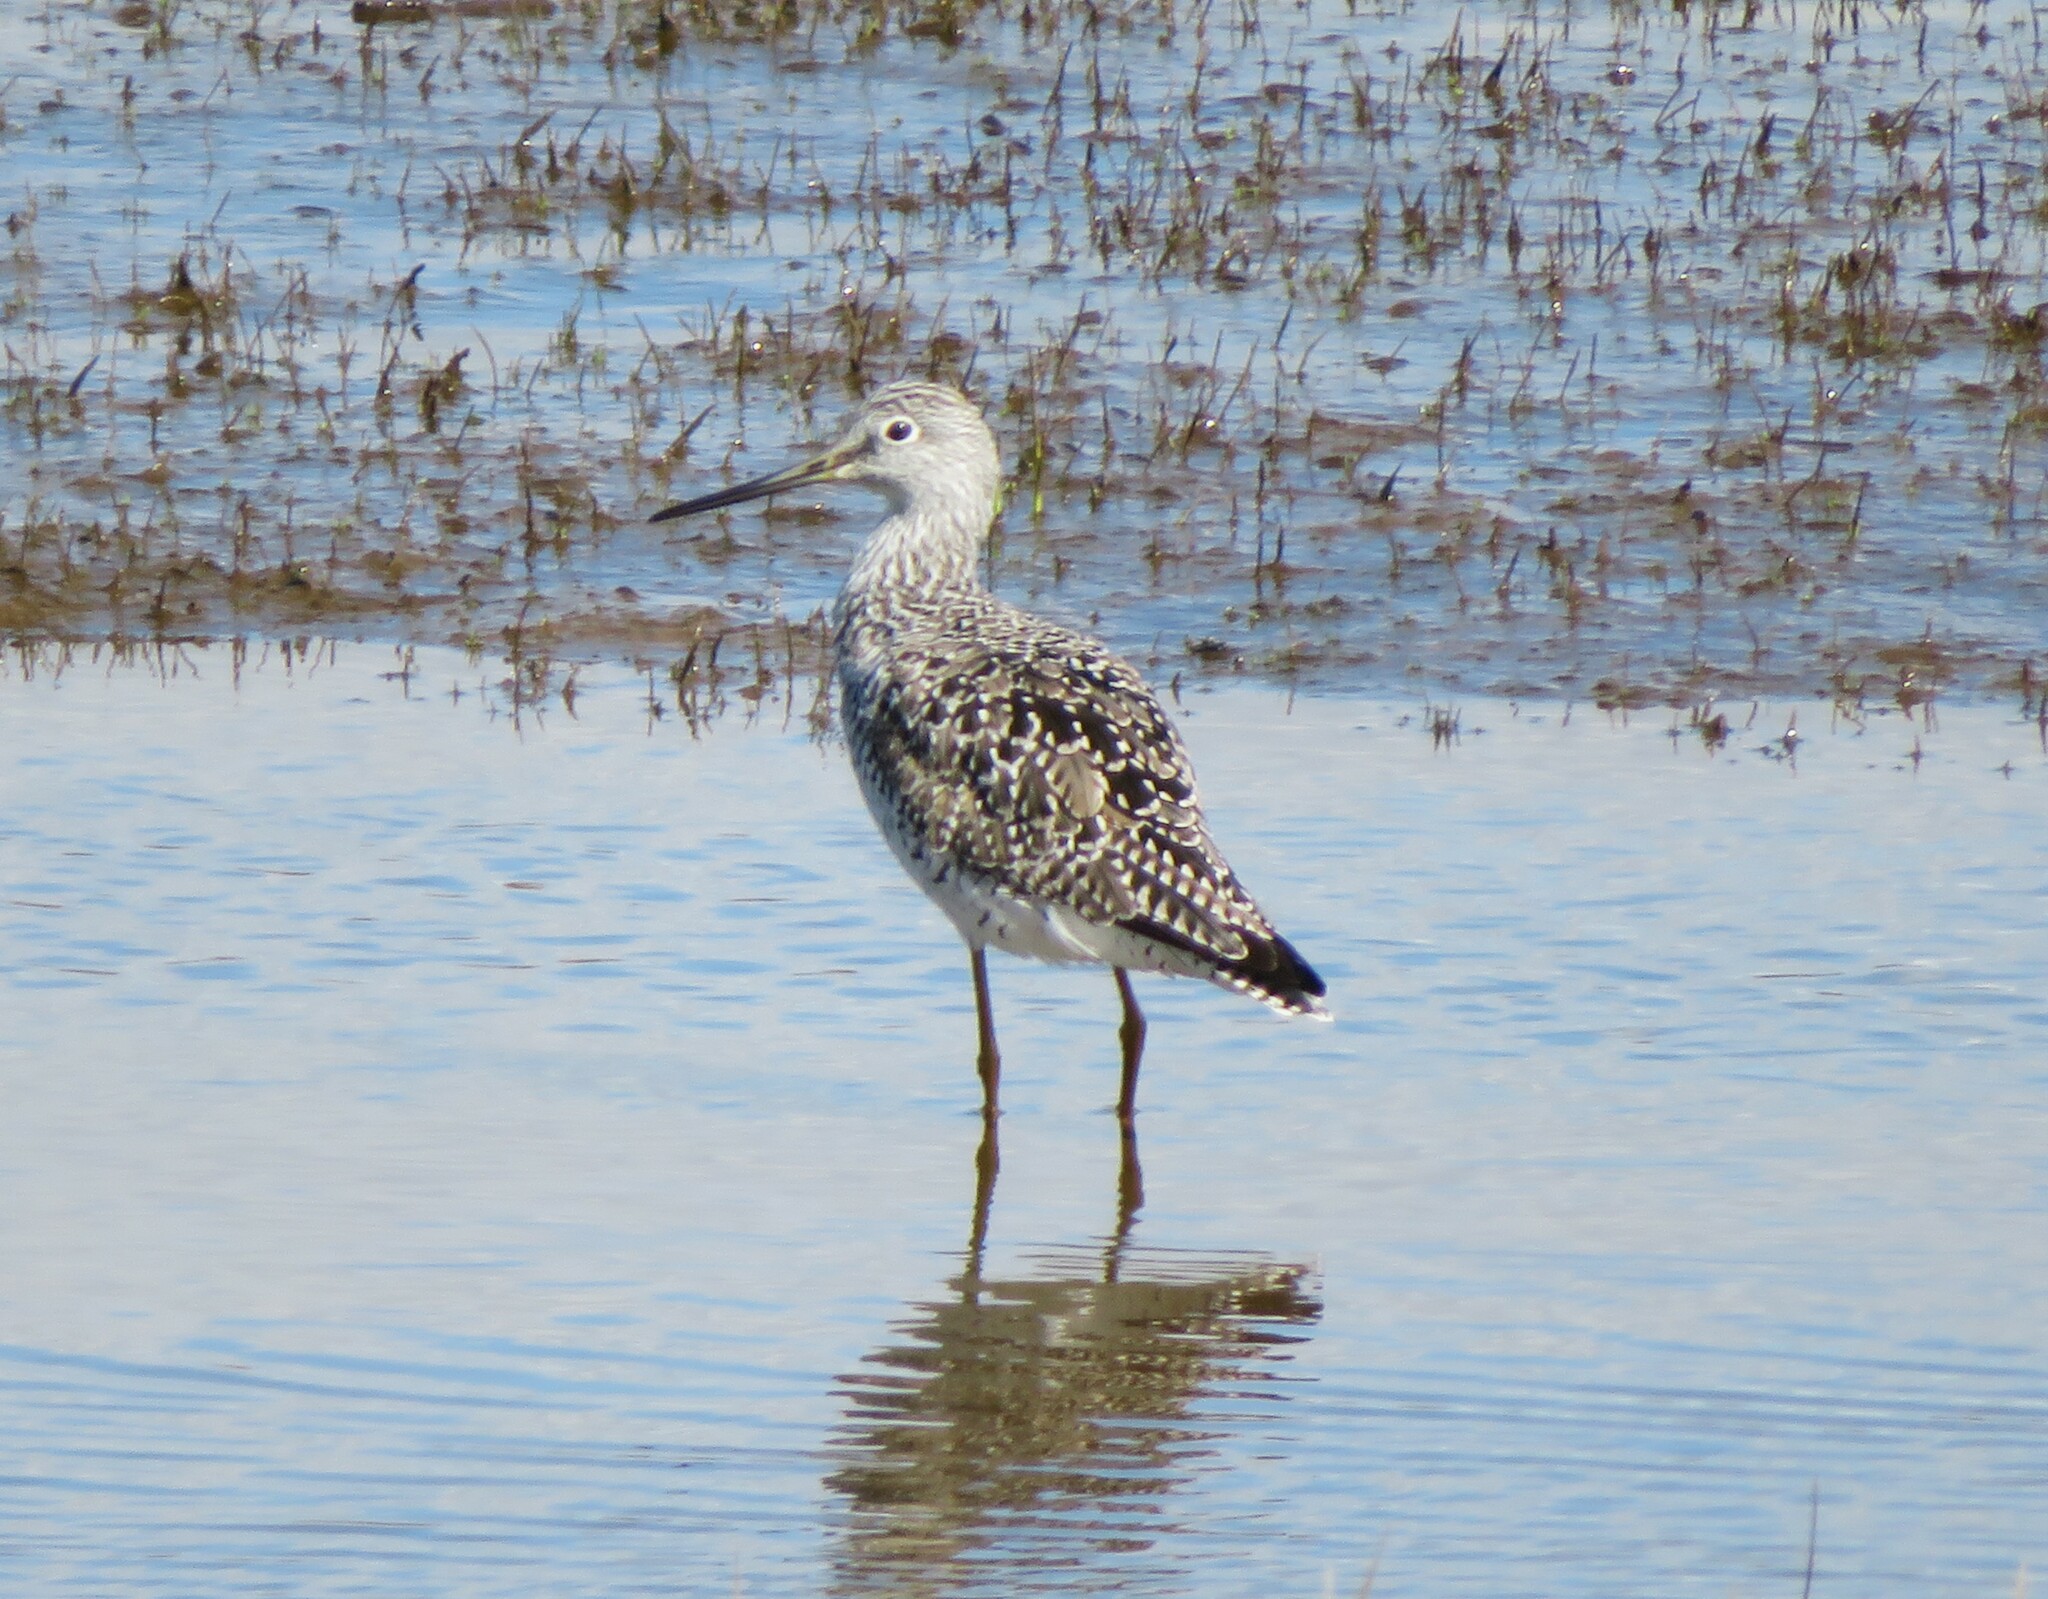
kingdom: Animalia
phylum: Chordata
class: Aves
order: Charadriiformes
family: Scolopacidae
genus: Tringa
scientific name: Tringa melanoleuca
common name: Greater yellowlegs
